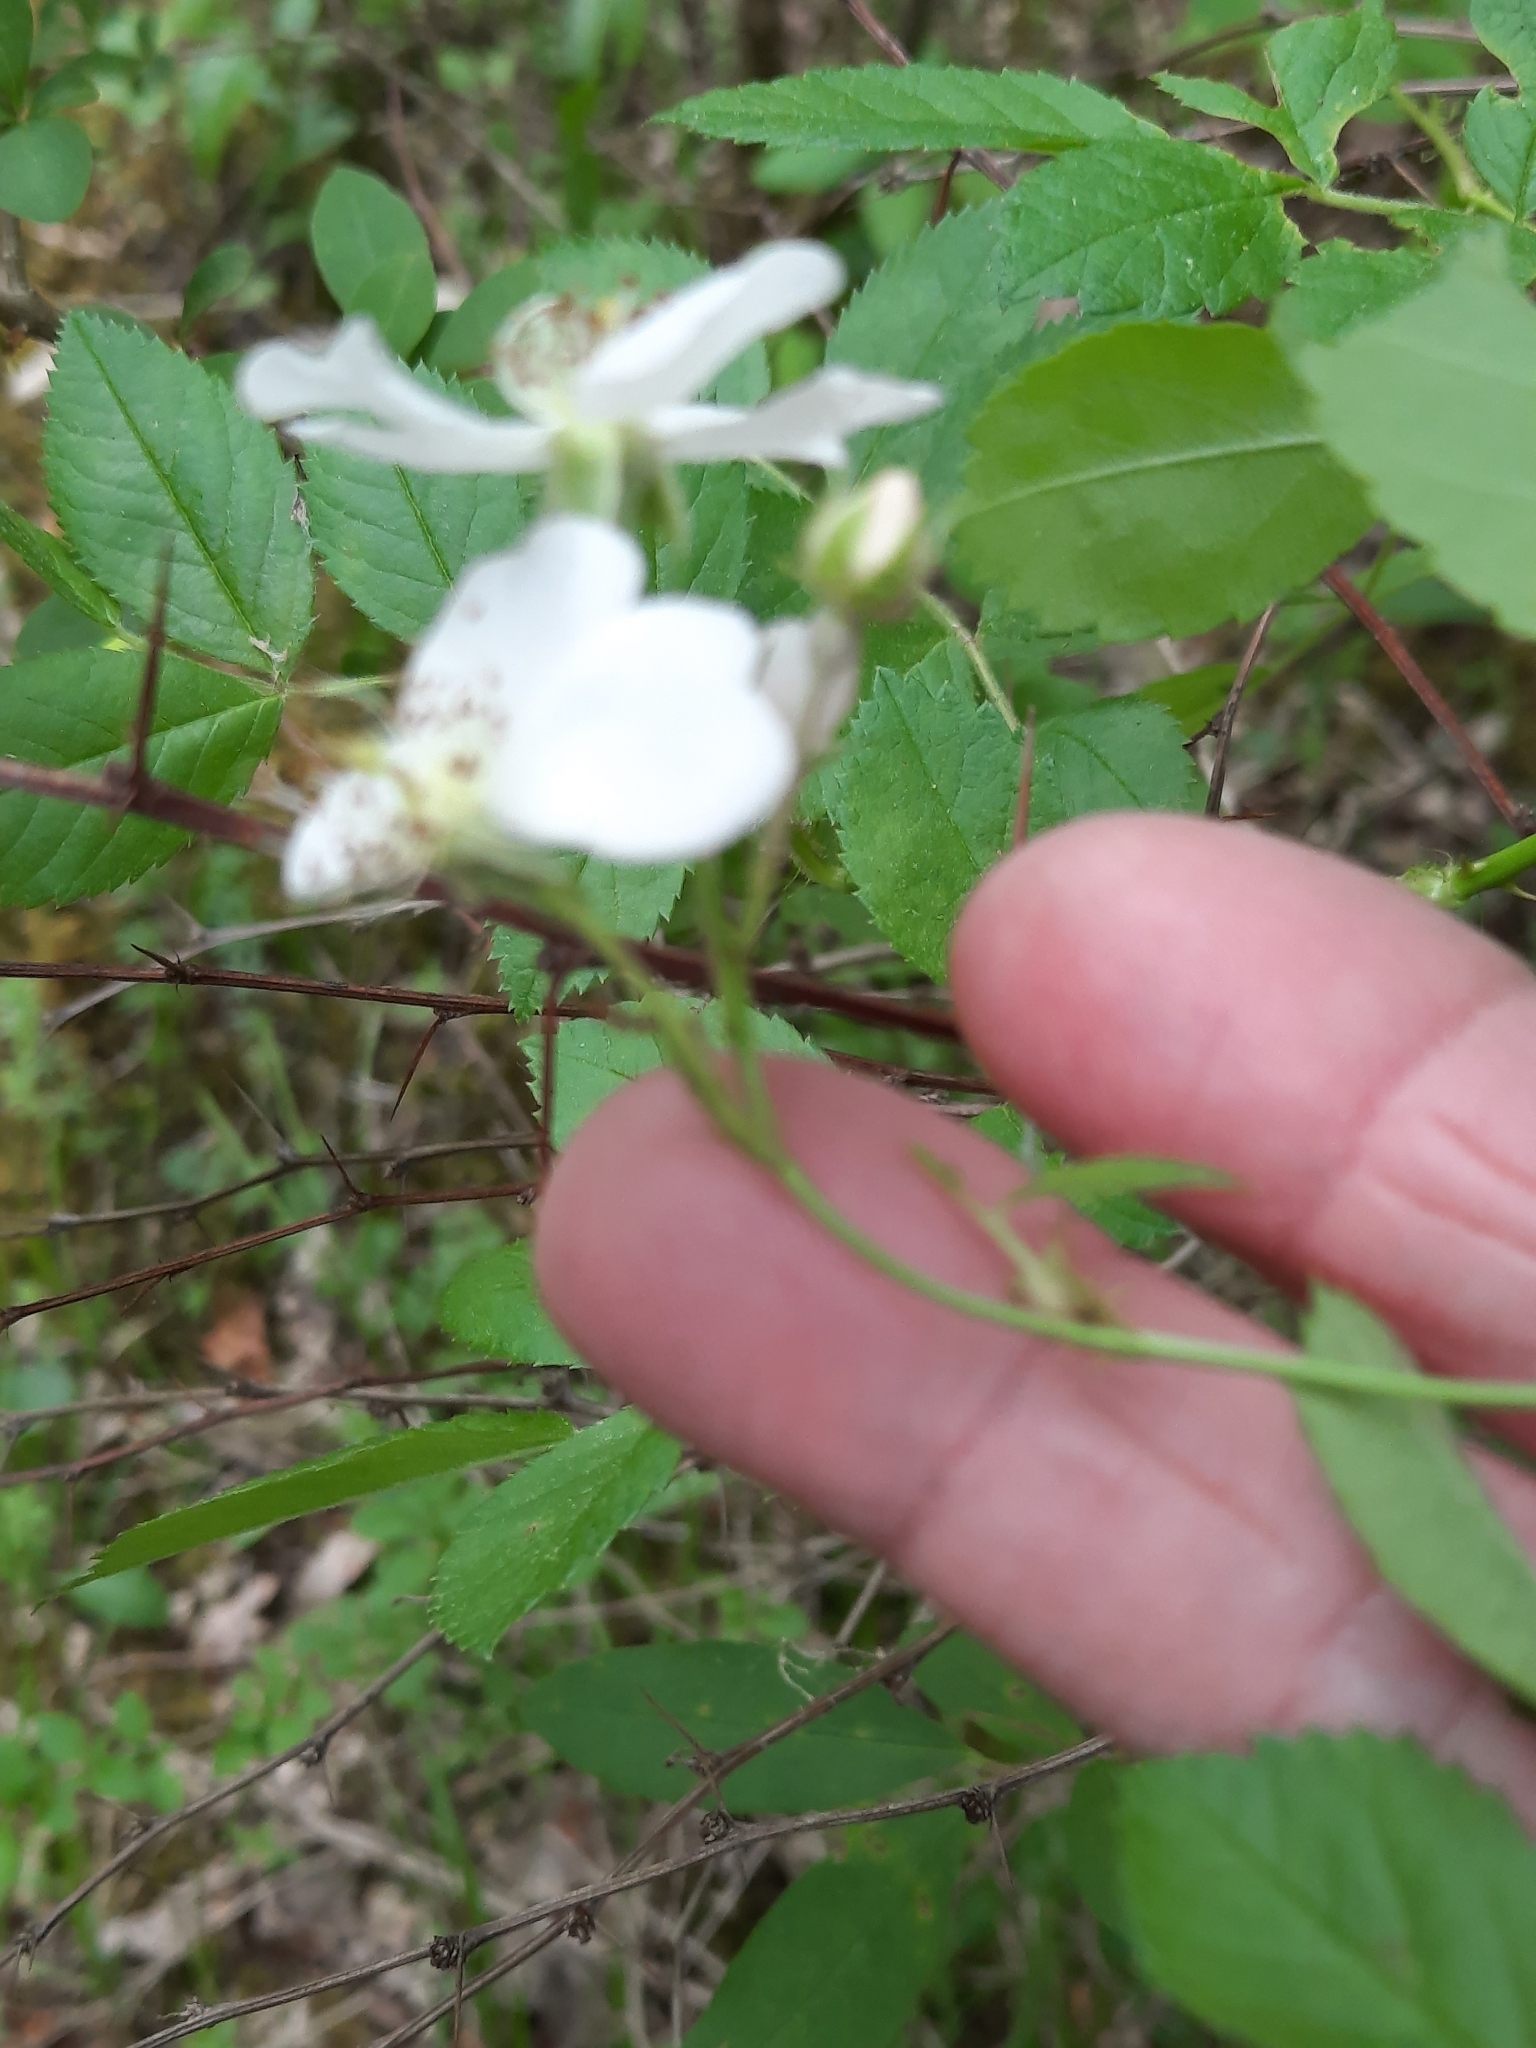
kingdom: Plantae
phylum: Tracheophyta
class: Magnoliopsida
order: Rosales
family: Rosaceae
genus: Rosa
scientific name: Rosa multiflora
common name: Multiflora rose
